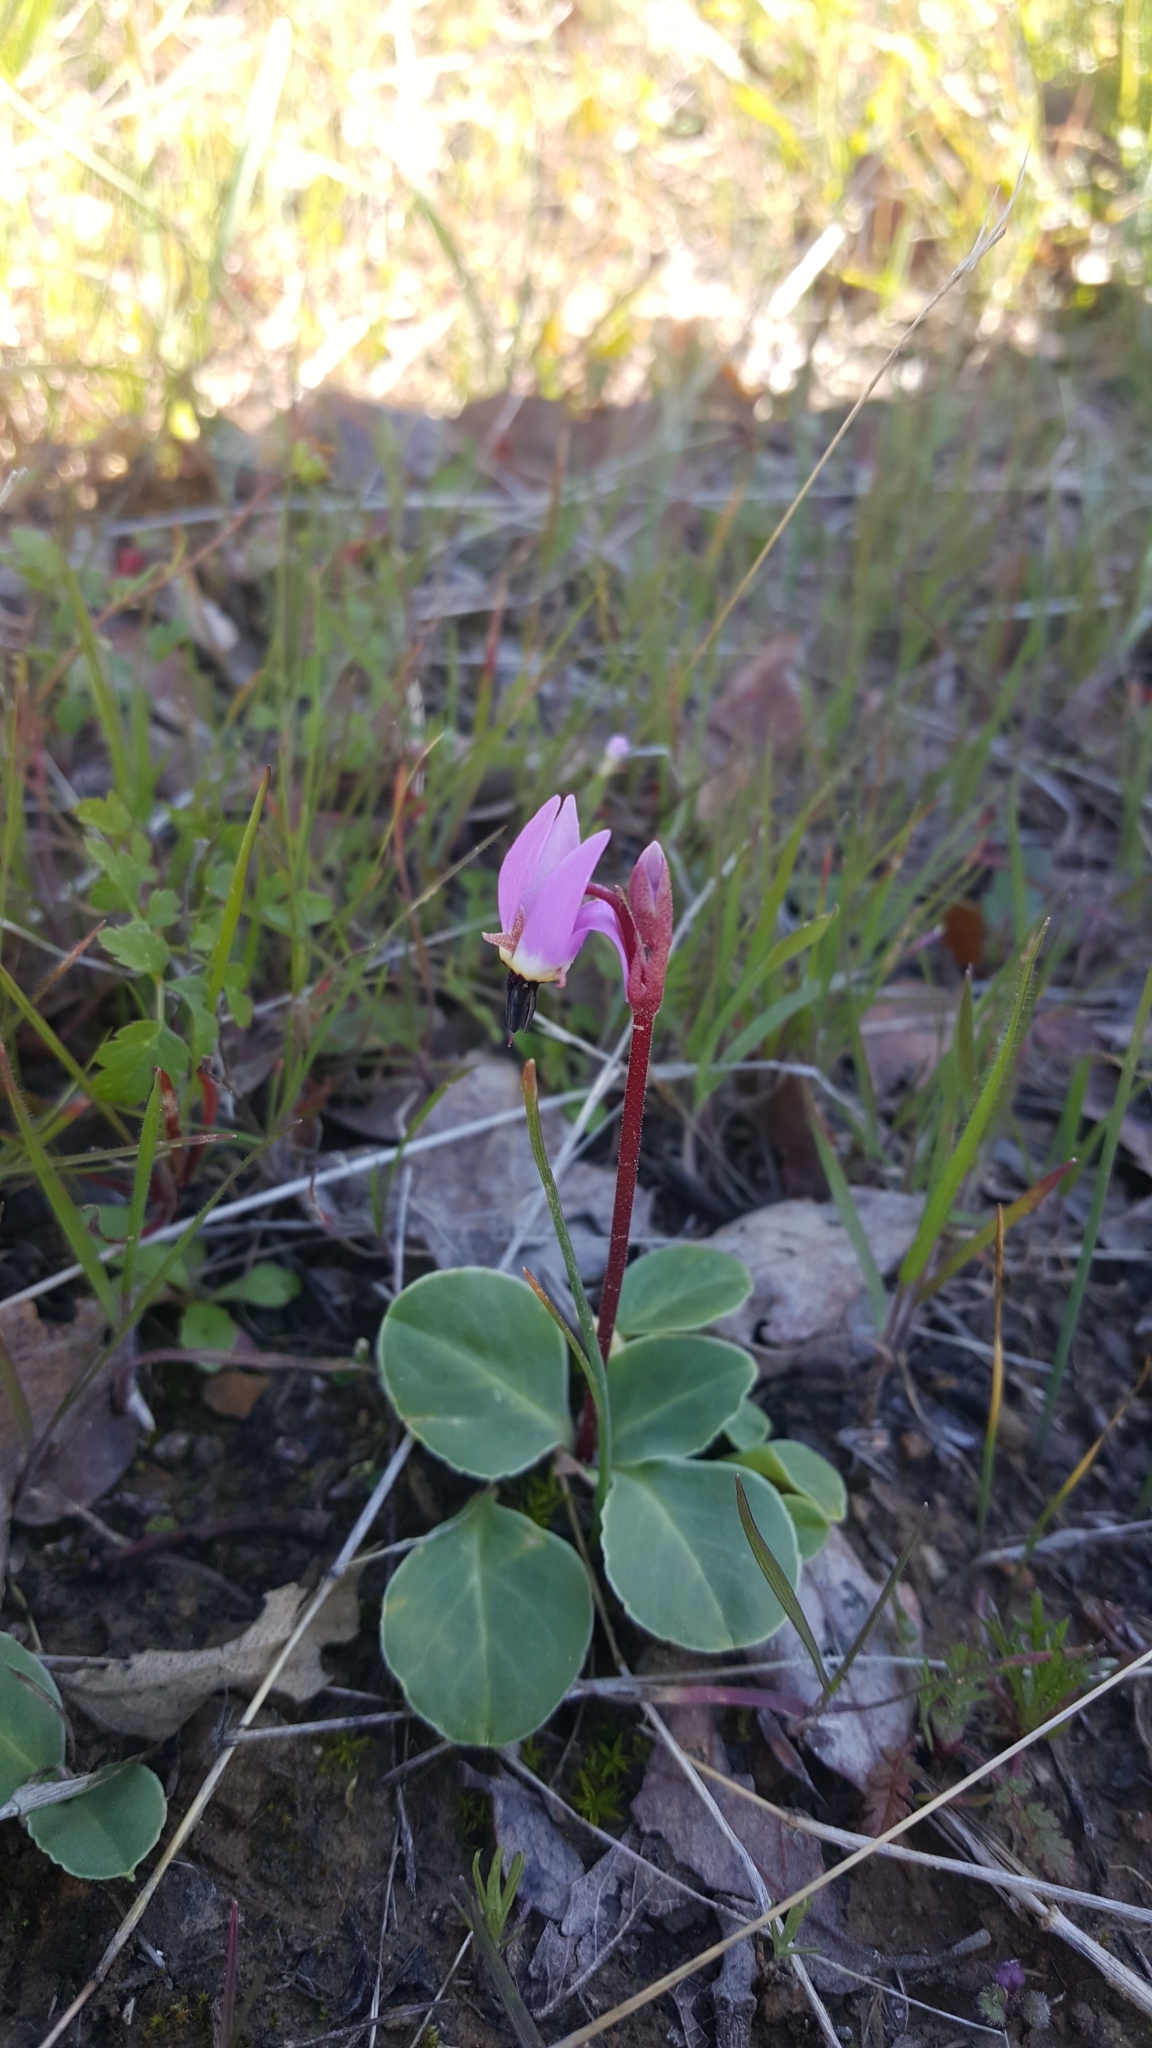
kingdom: Plantae
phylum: Tracheophyta
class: Magnoliopsida
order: Ericales
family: Primulaceae
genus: Dodecatheon
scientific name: Dodecatheon hendersonii
